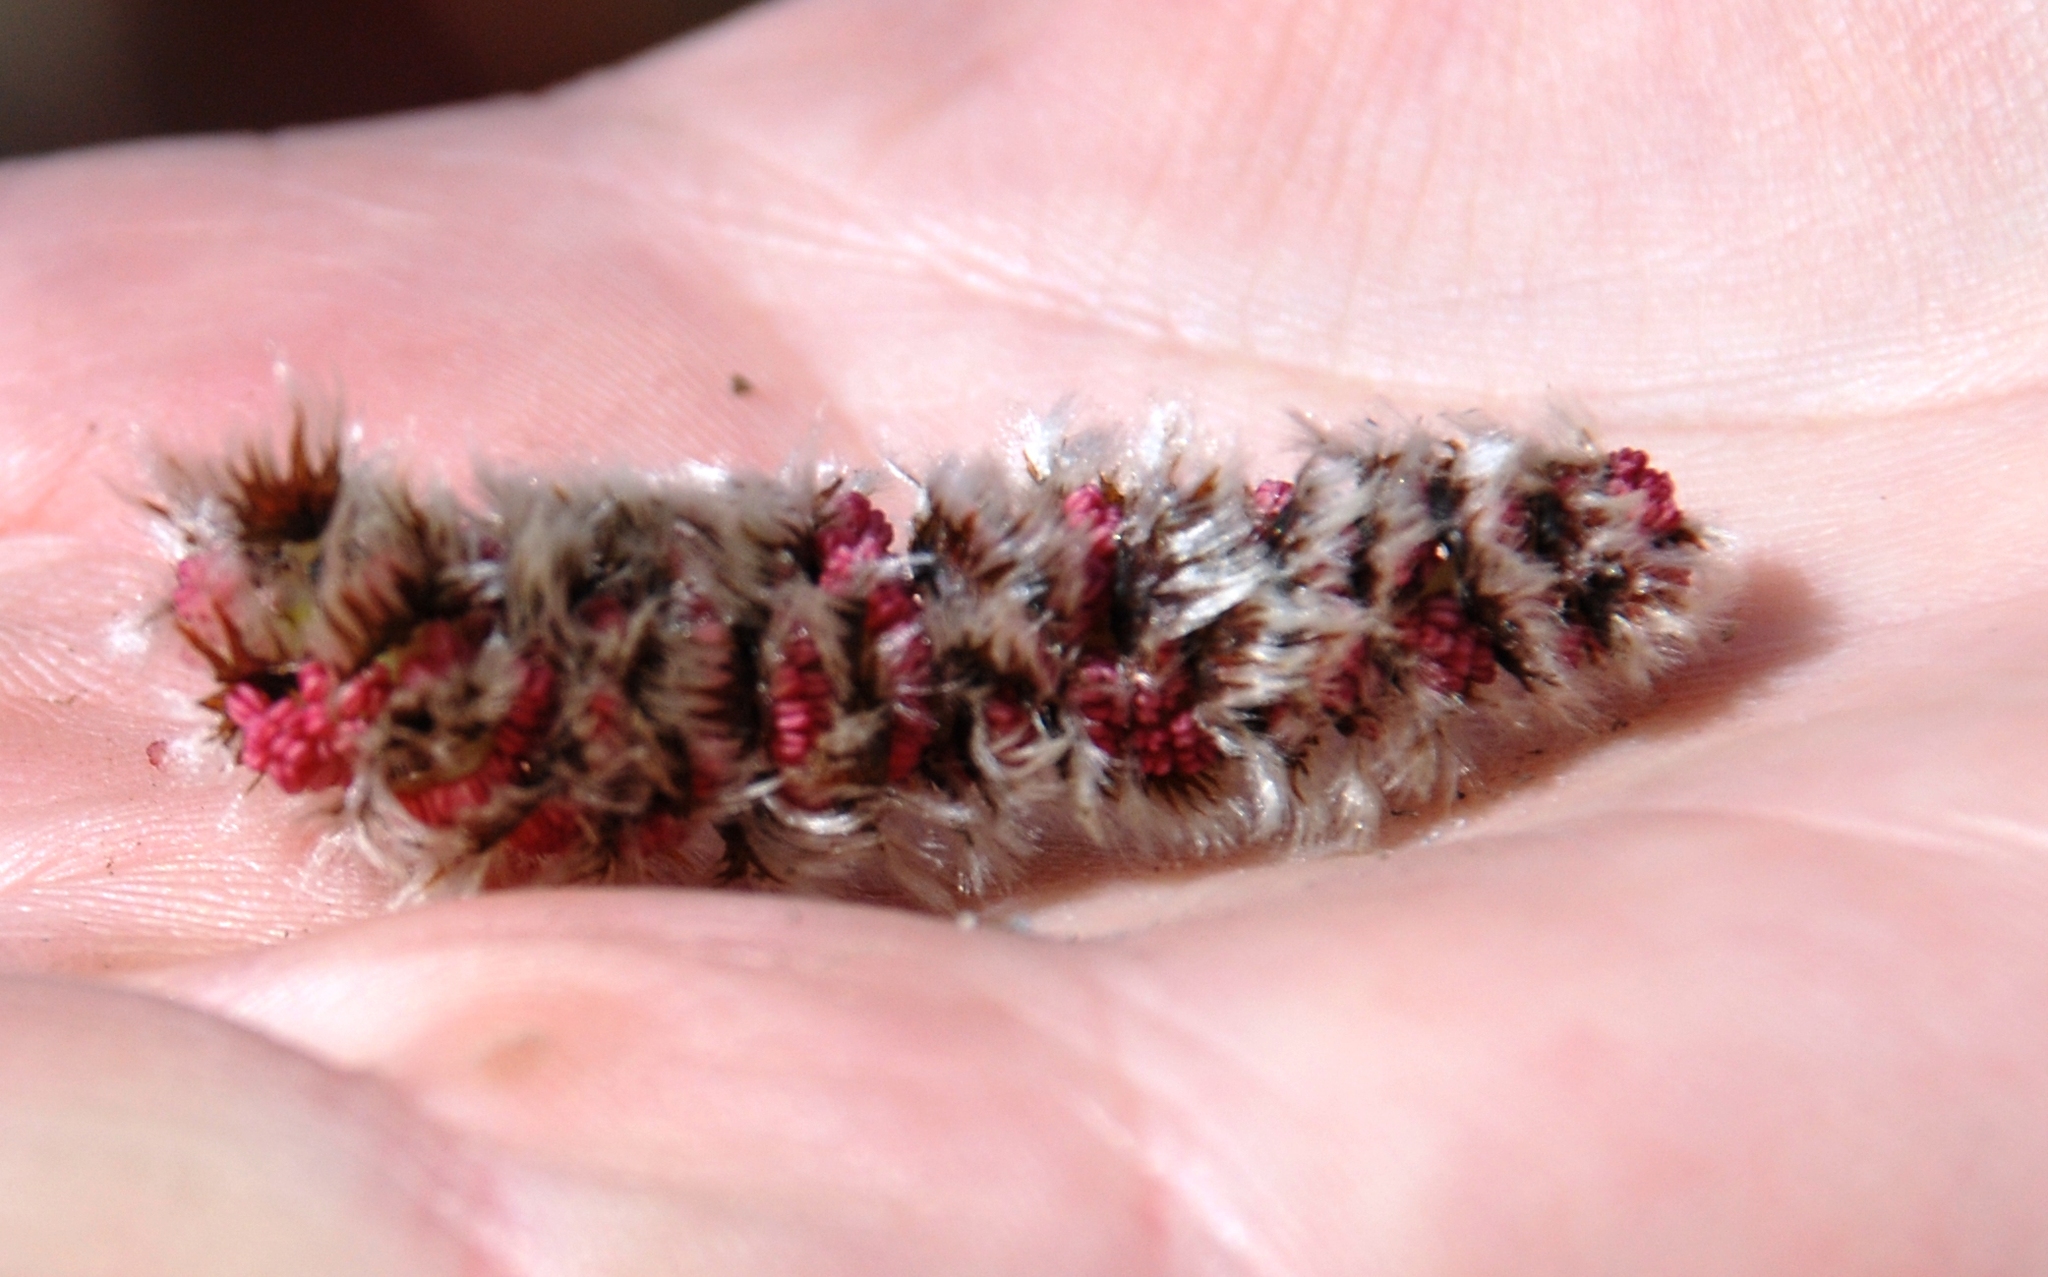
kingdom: Plantae
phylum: Tracheophyta
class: Magnoliopsida
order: Malpighiales
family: Salicaceae
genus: Populus
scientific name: Populus tremula
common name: European aspen
